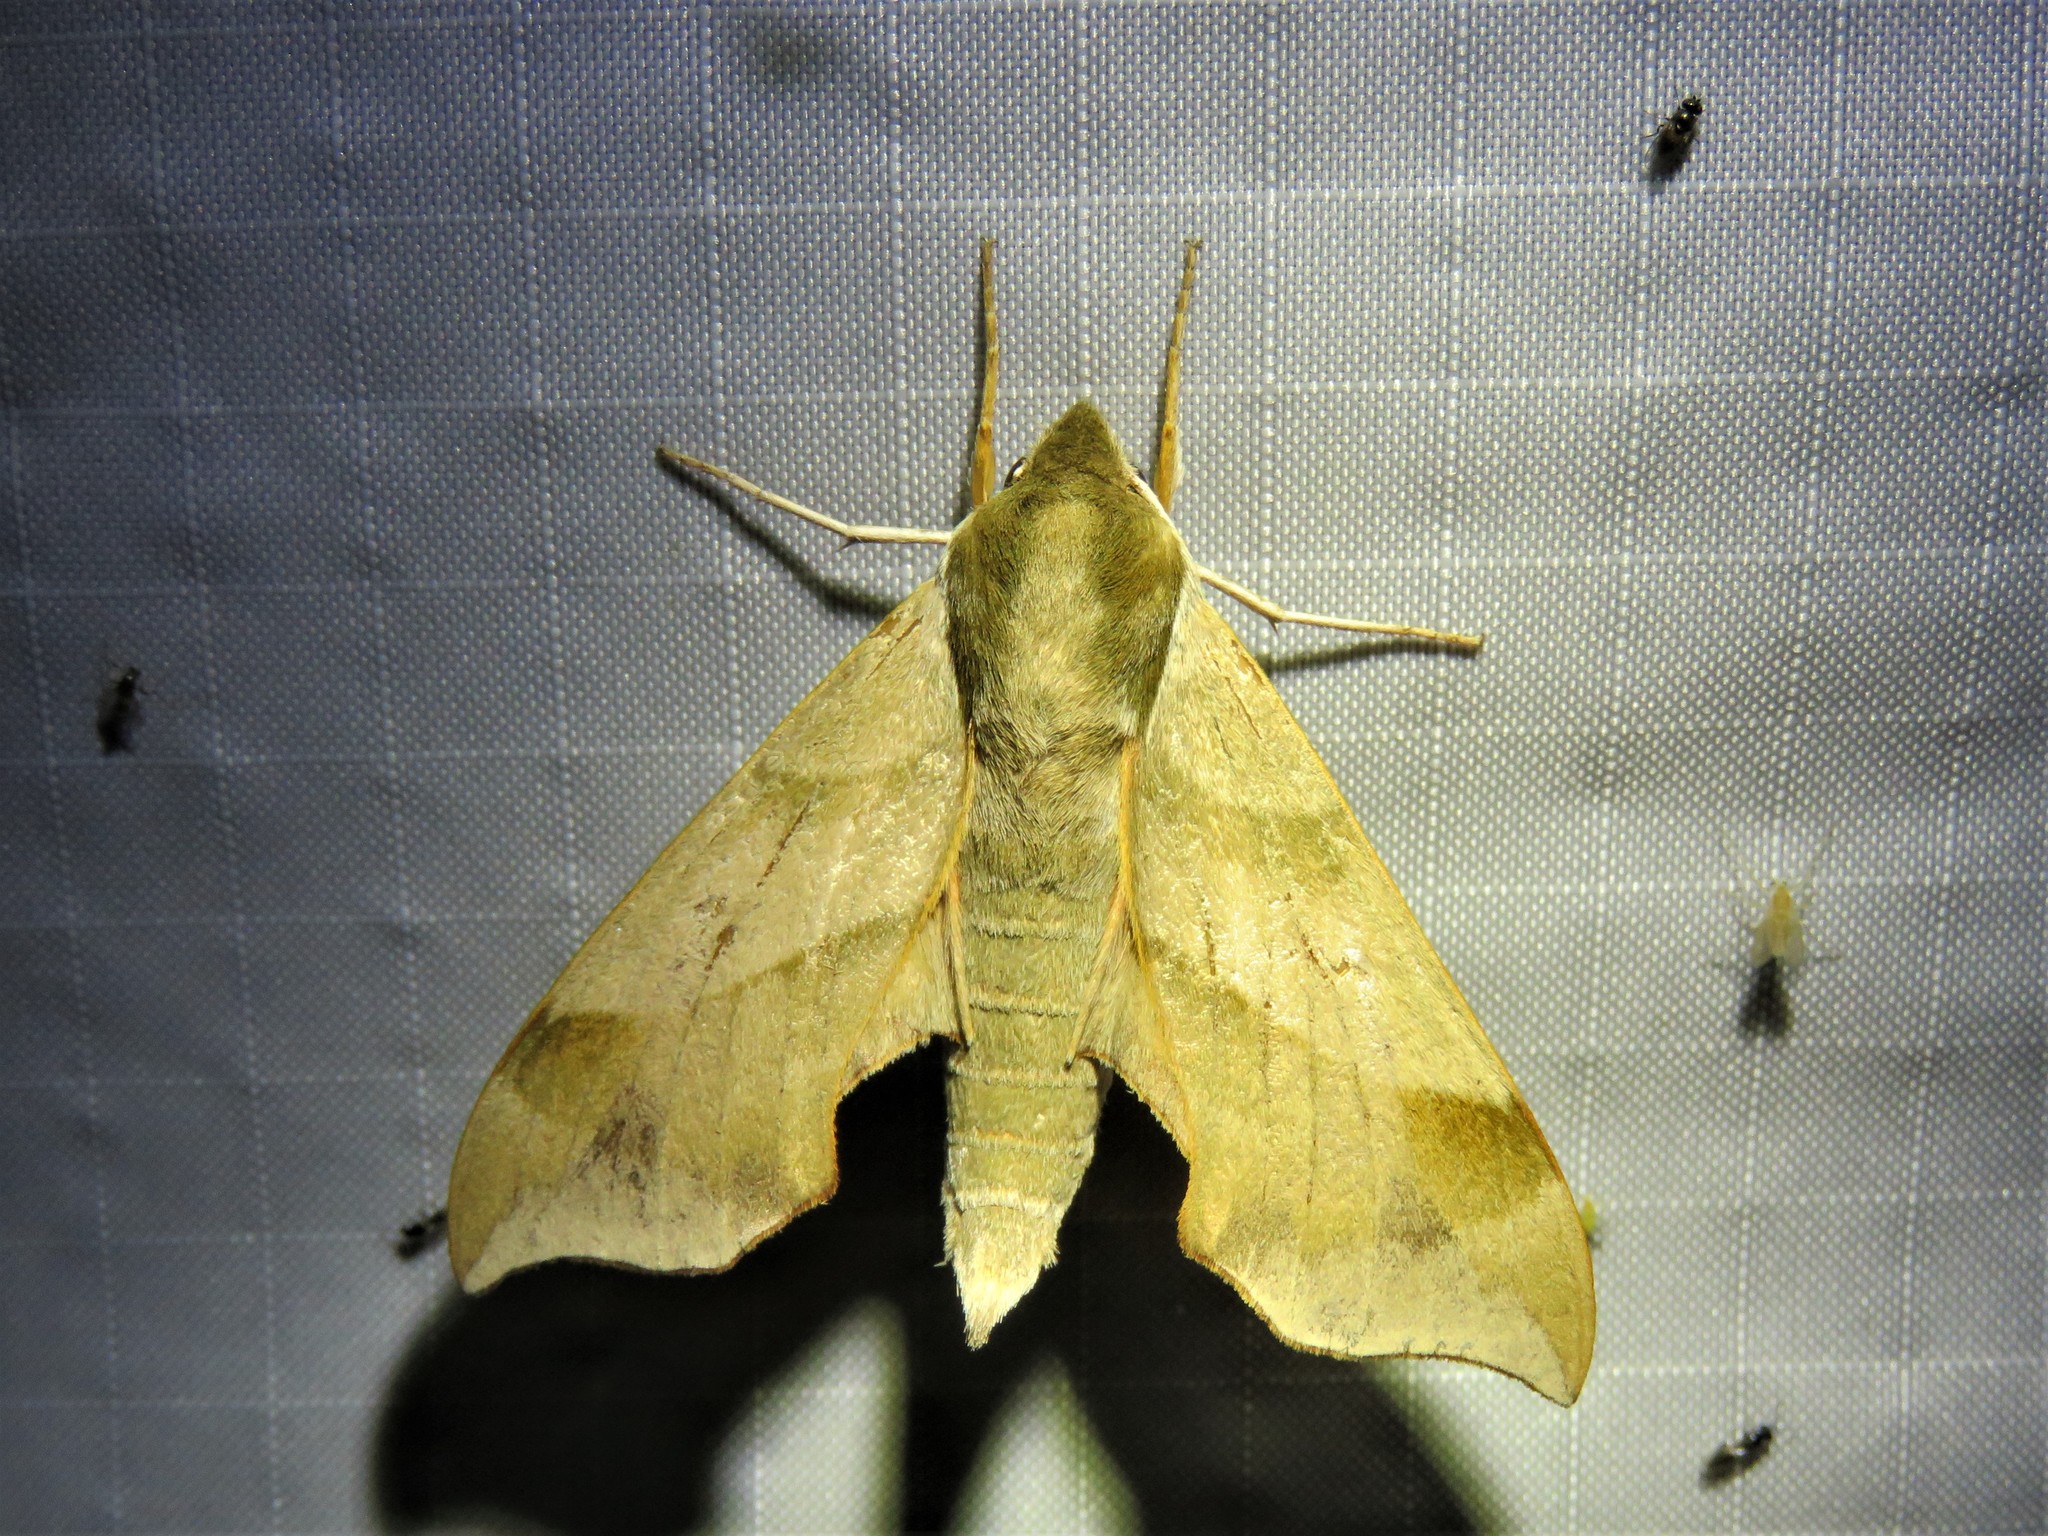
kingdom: Animalia
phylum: Arthropoda
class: Insecta
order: Lepidoptera
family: Sphingidae
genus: Darapsa
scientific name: Darapsa myron
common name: Hog sphinx
